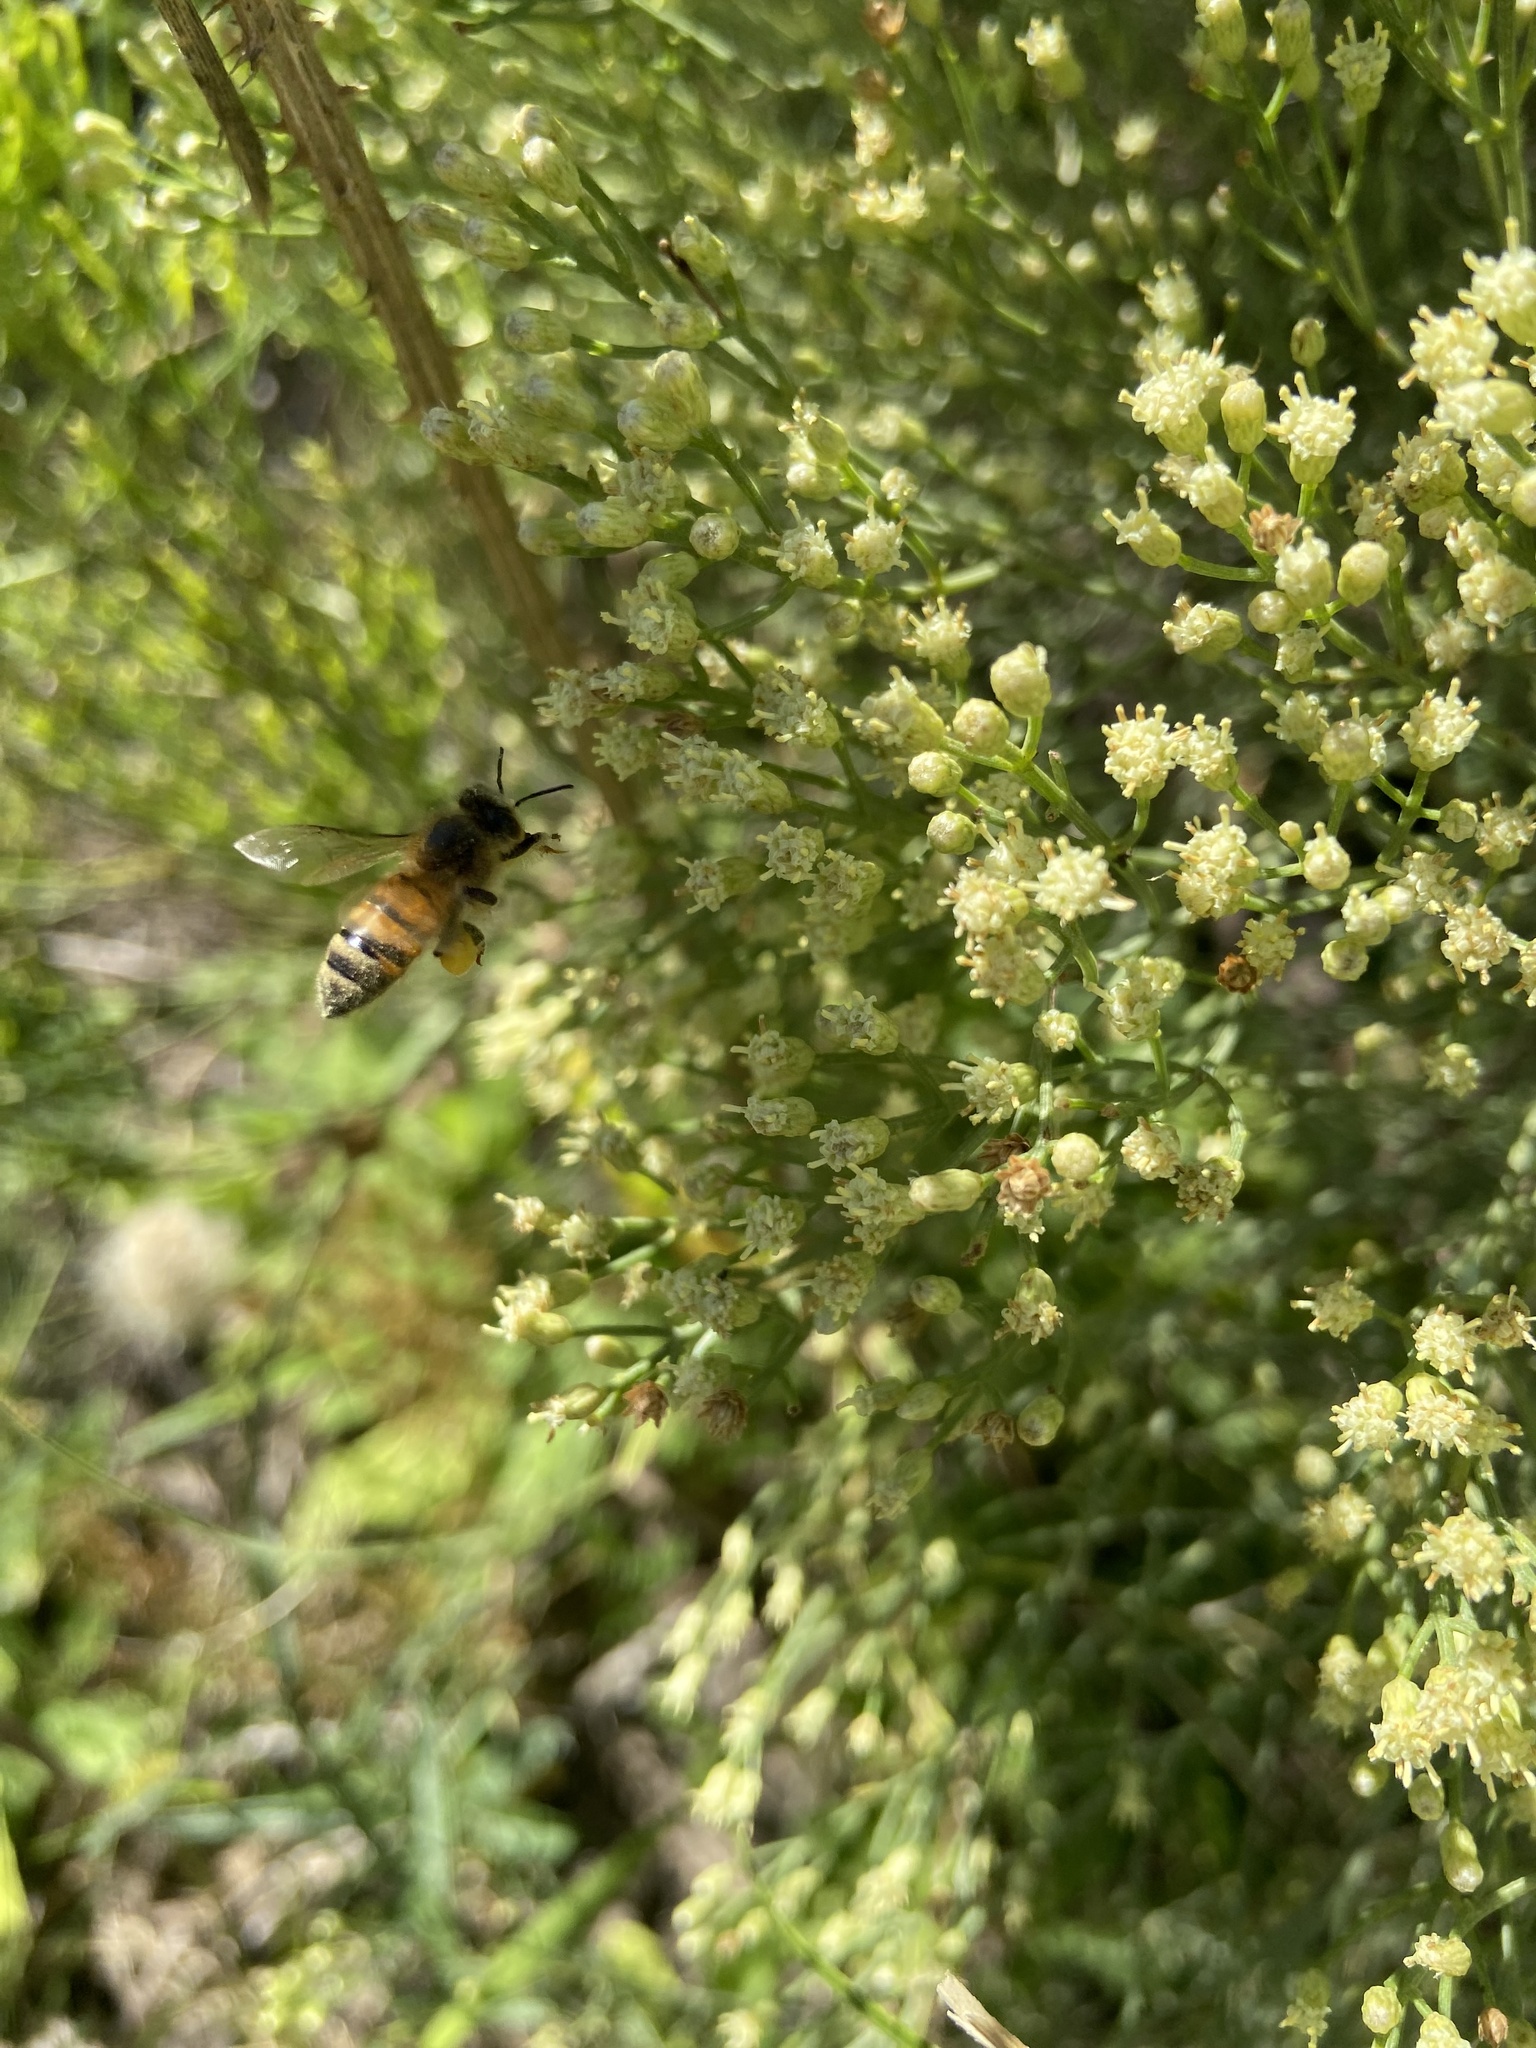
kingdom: Plantae
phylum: Tracheophyta
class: Magnoliopsida
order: Asterales
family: Asteraceae
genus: Baccharis
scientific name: Baccharis notosergila
